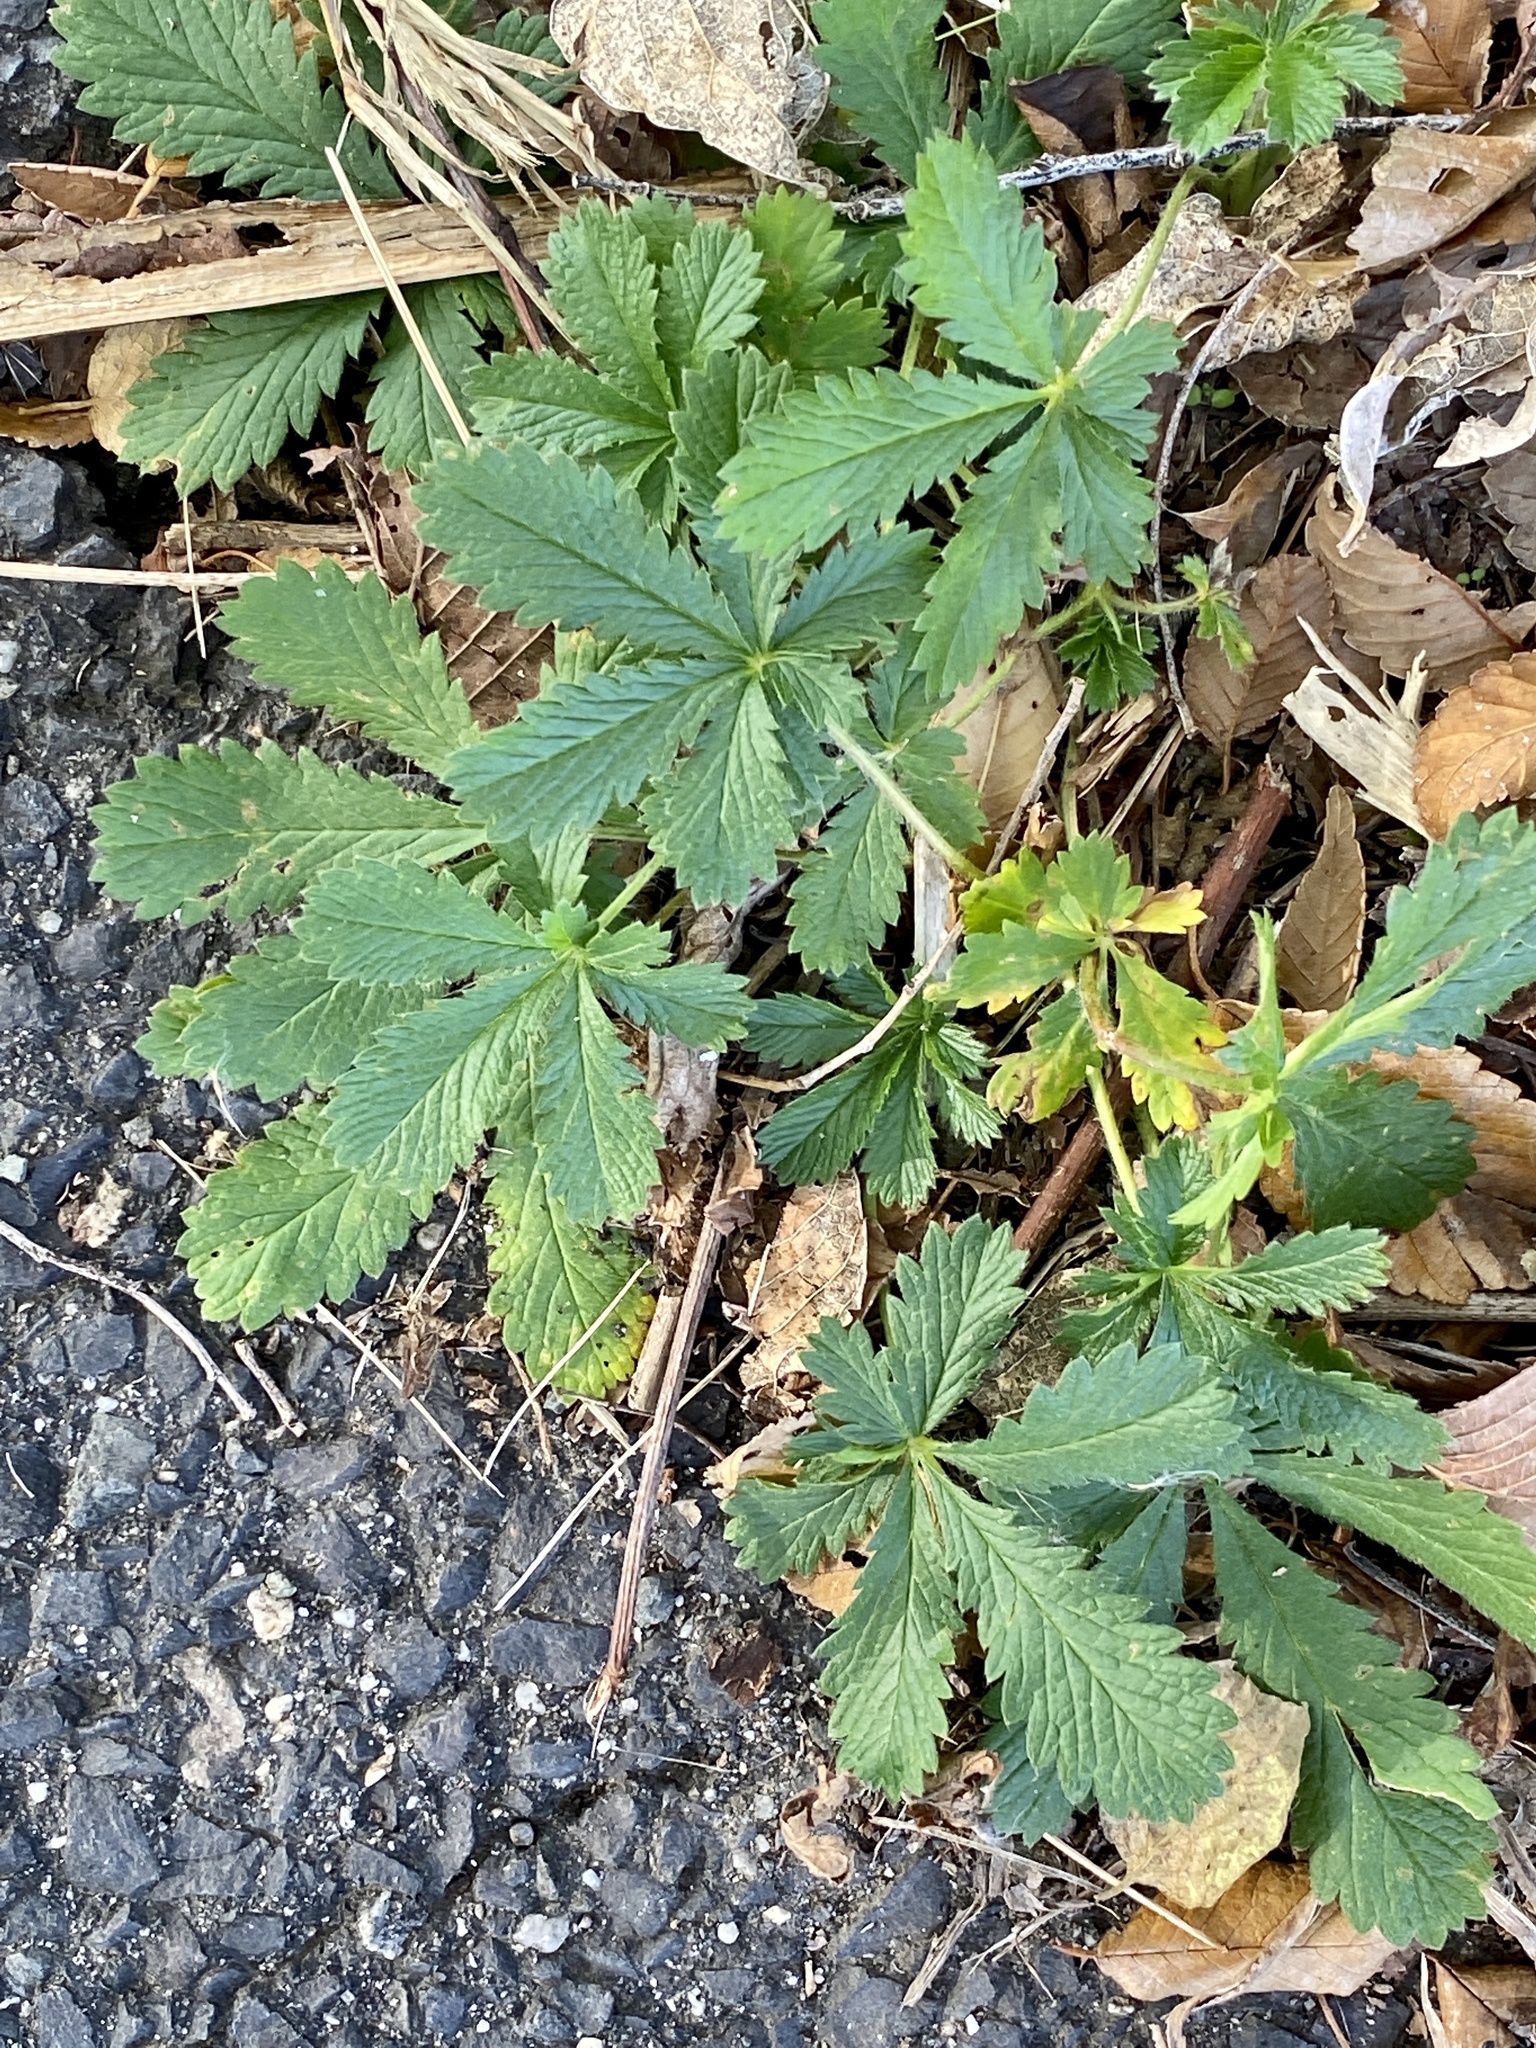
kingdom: Plantae
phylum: Tracheophyta
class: Magnoliopsida
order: Rosales
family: Rosaceae
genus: Potentilla
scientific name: Potentilla recta
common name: Sulphur cinquefoil
